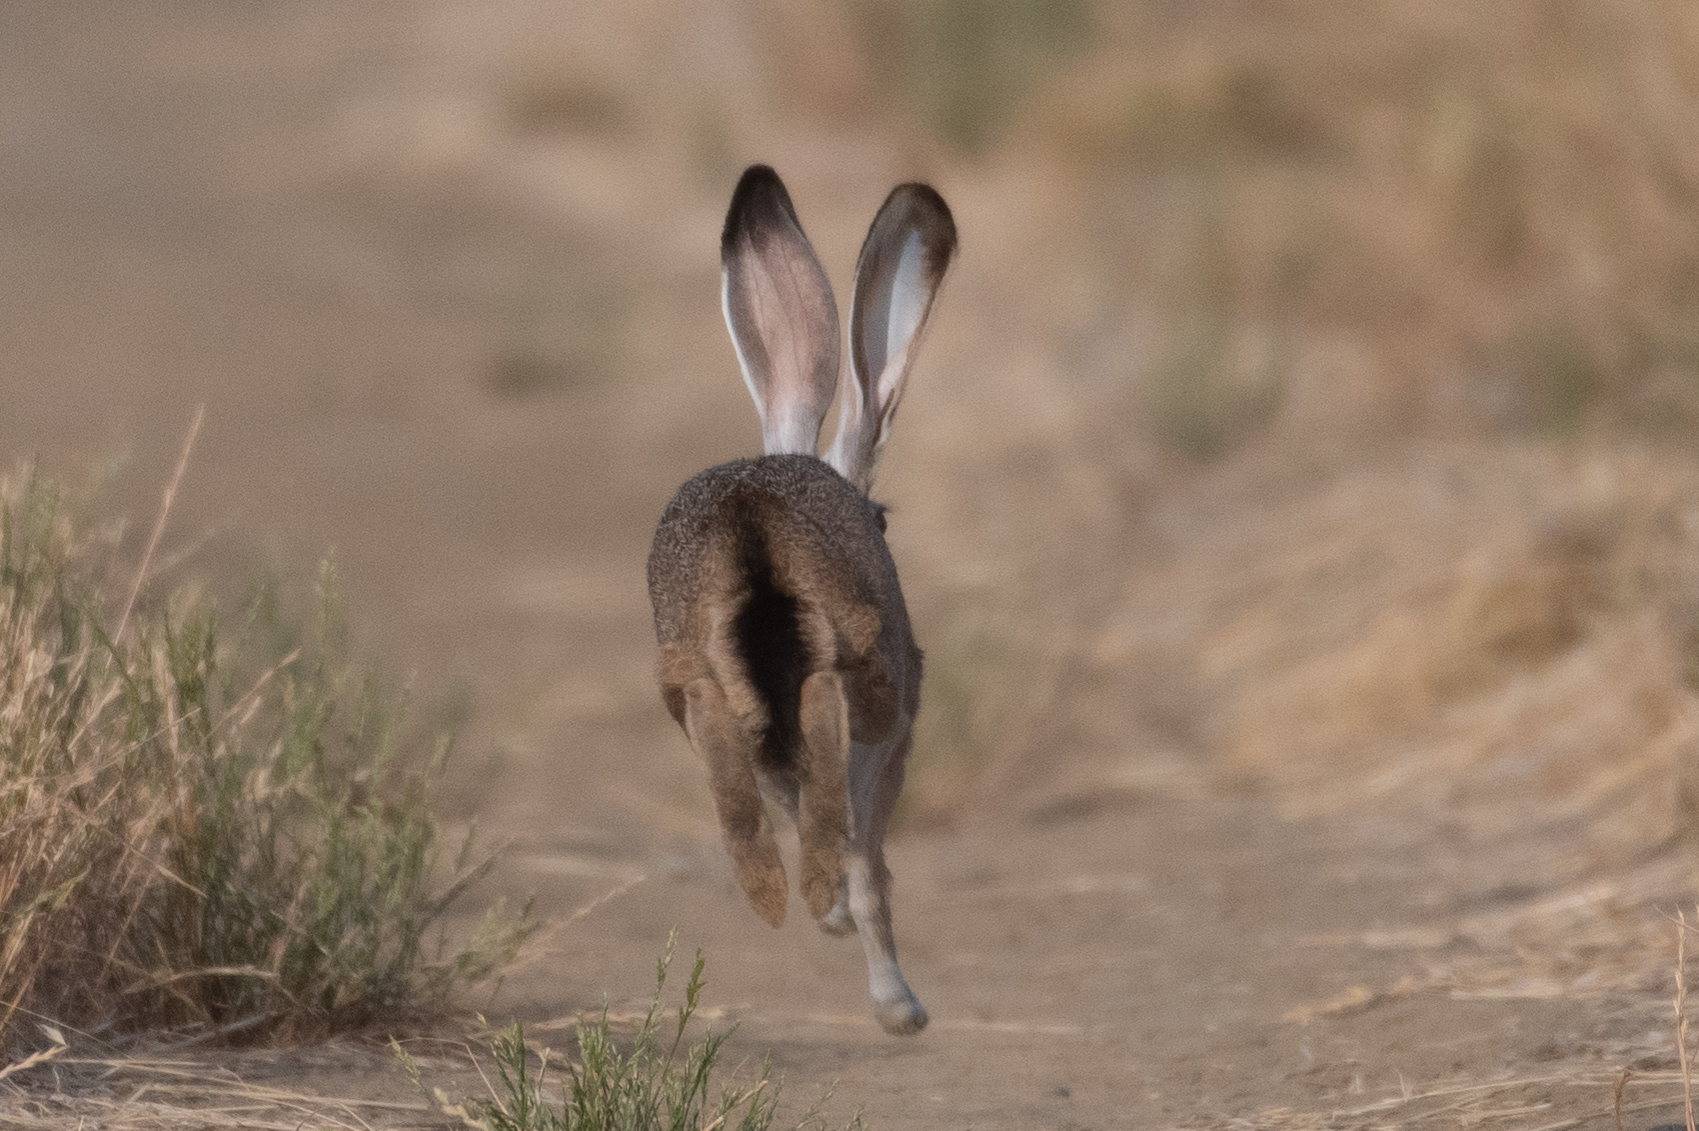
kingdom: Animalia
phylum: Chordata
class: Mammalia
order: Lagomorpha
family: Leporidae
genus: Lepus
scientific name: Lepus californicus
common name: Black-tailed jackrabbit
